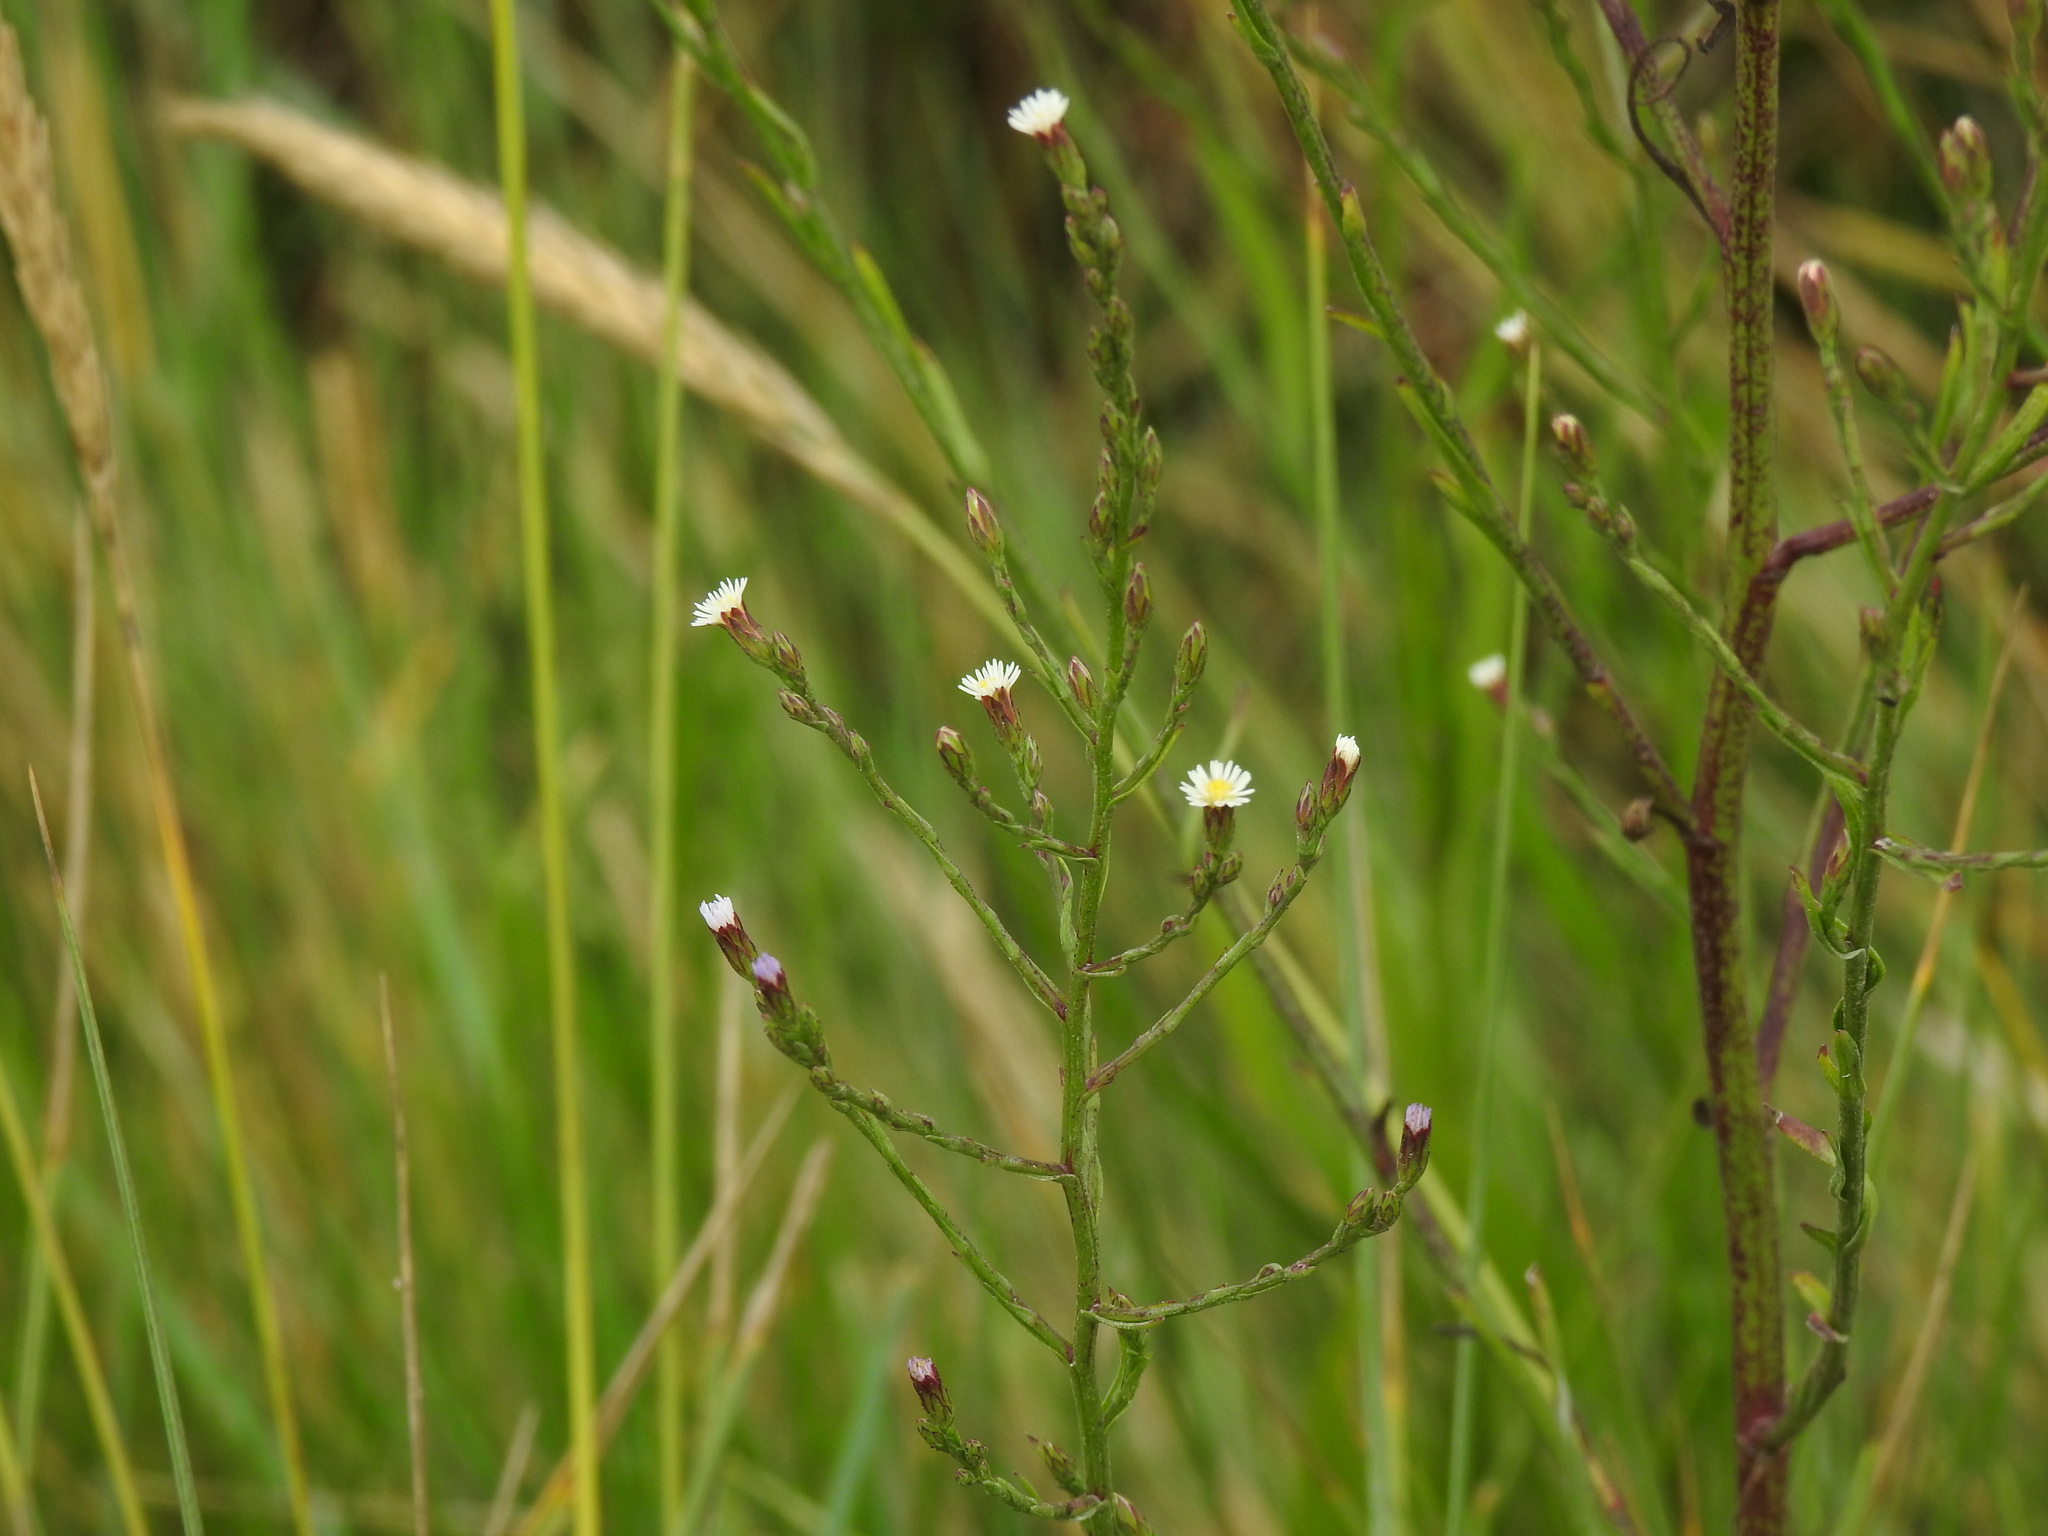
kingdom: Plantae
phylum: Tracheophyta
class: Magnoliopsida
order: Asterales
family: Asteraceae
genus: Symphyotrichum
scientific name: Symphyotrichum squamatum
